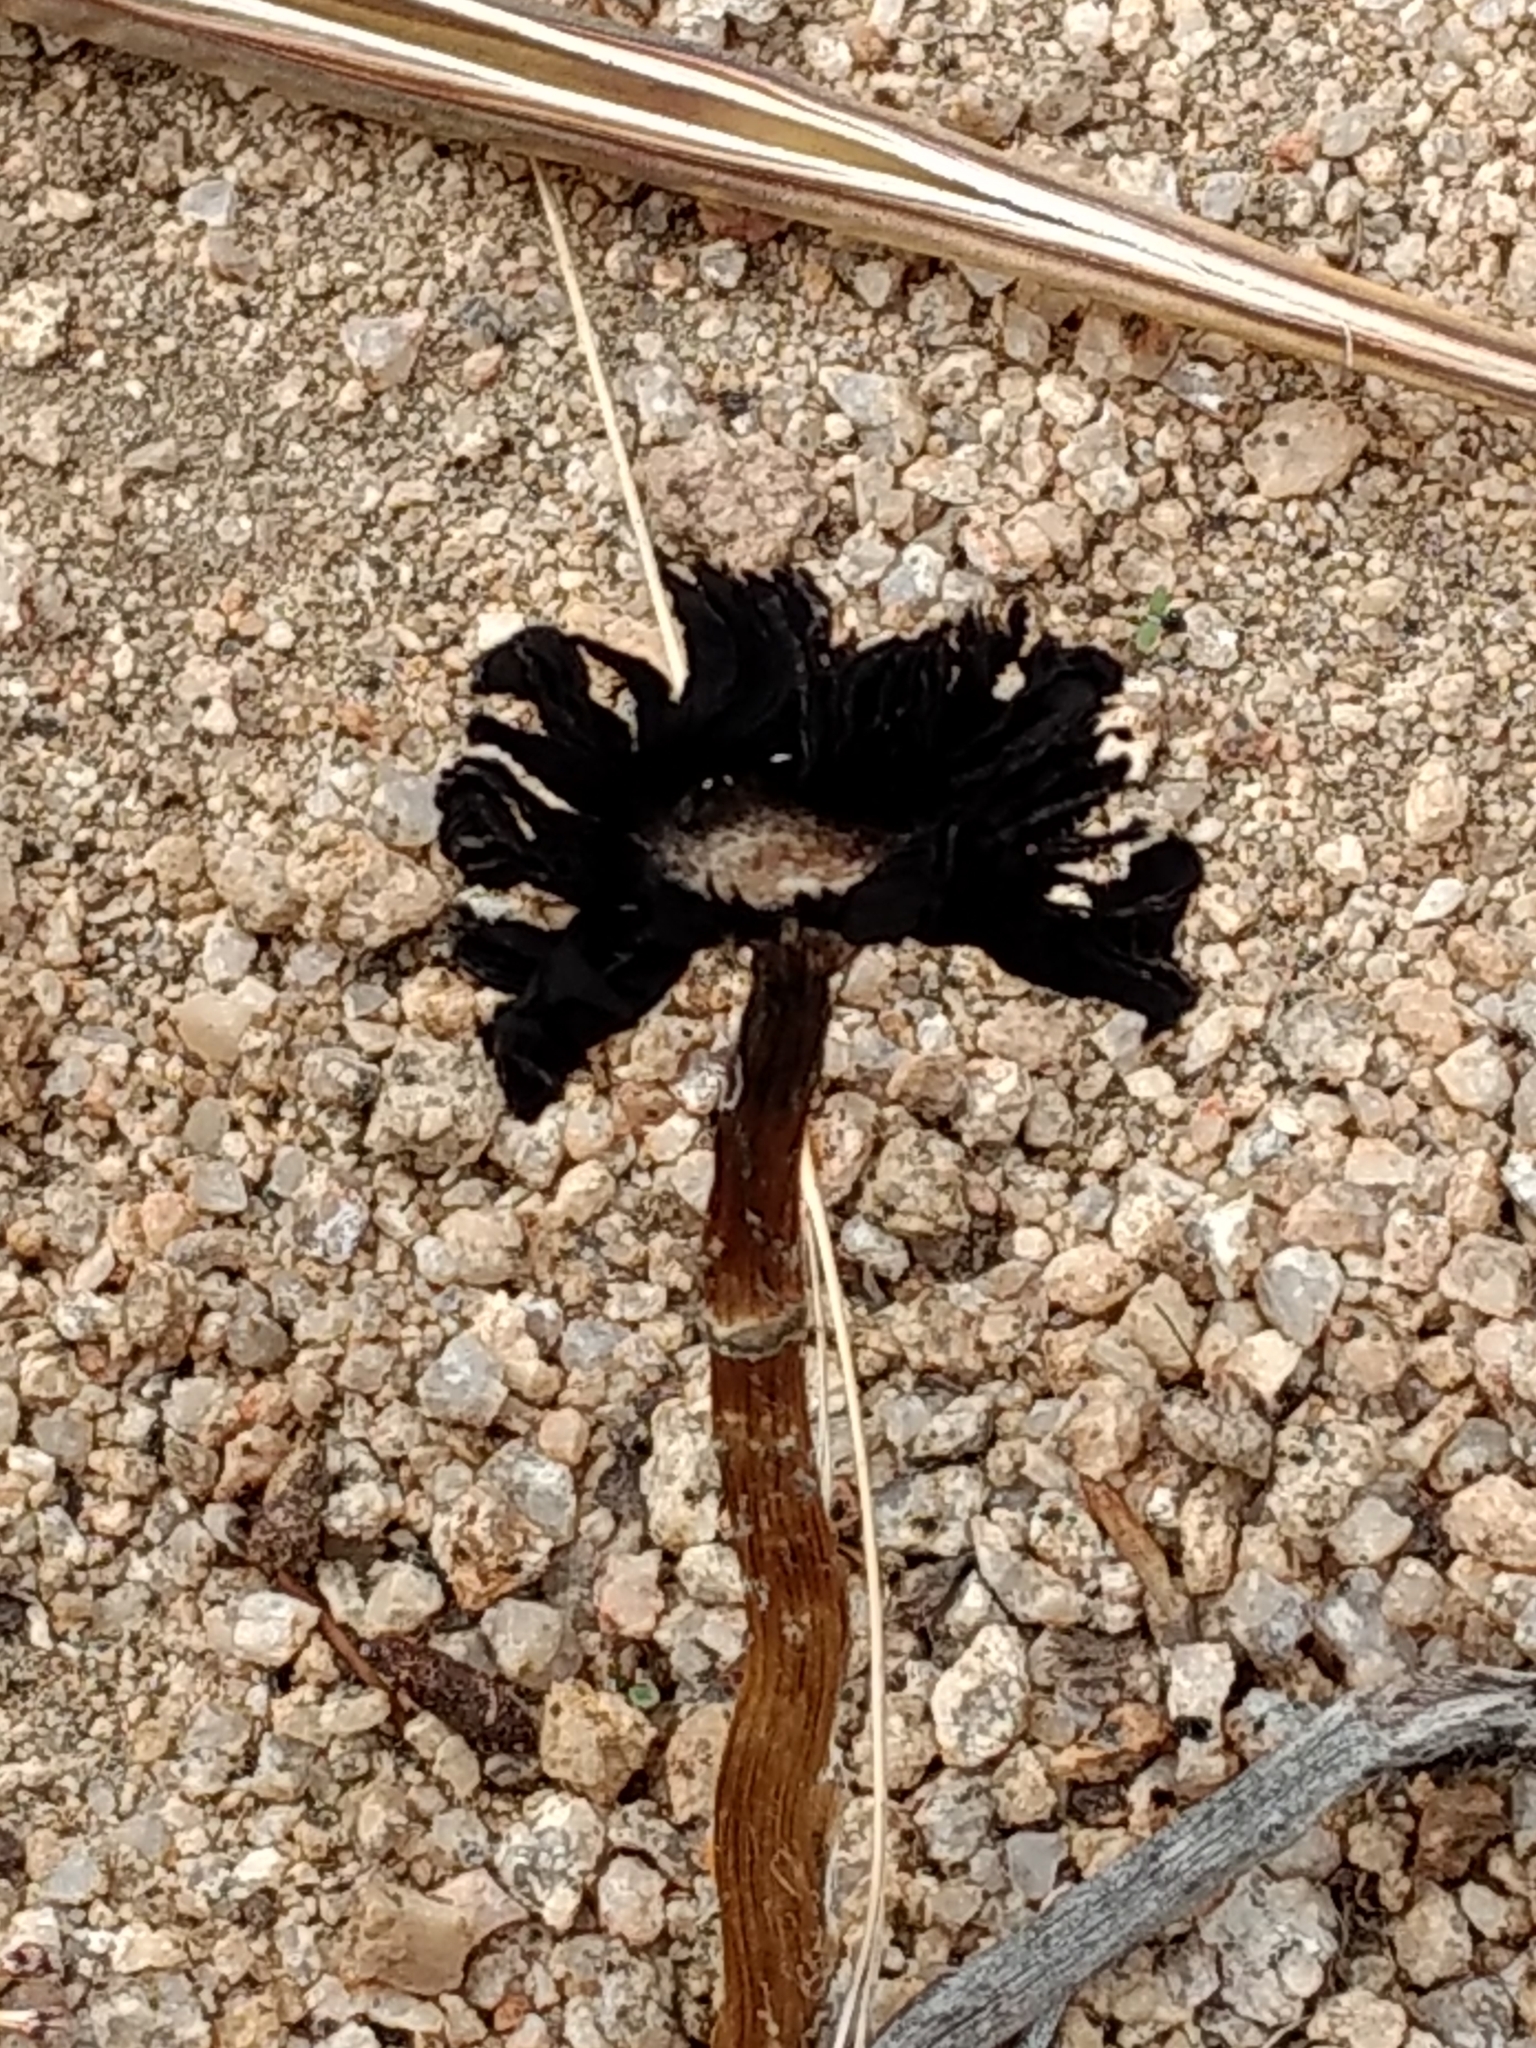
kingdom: Fungi
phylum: Basidiomycota
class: Agaricomycetes
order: Agaricales
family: Agaricaceae
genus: Montagnea
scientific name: Montagnea arenaria
